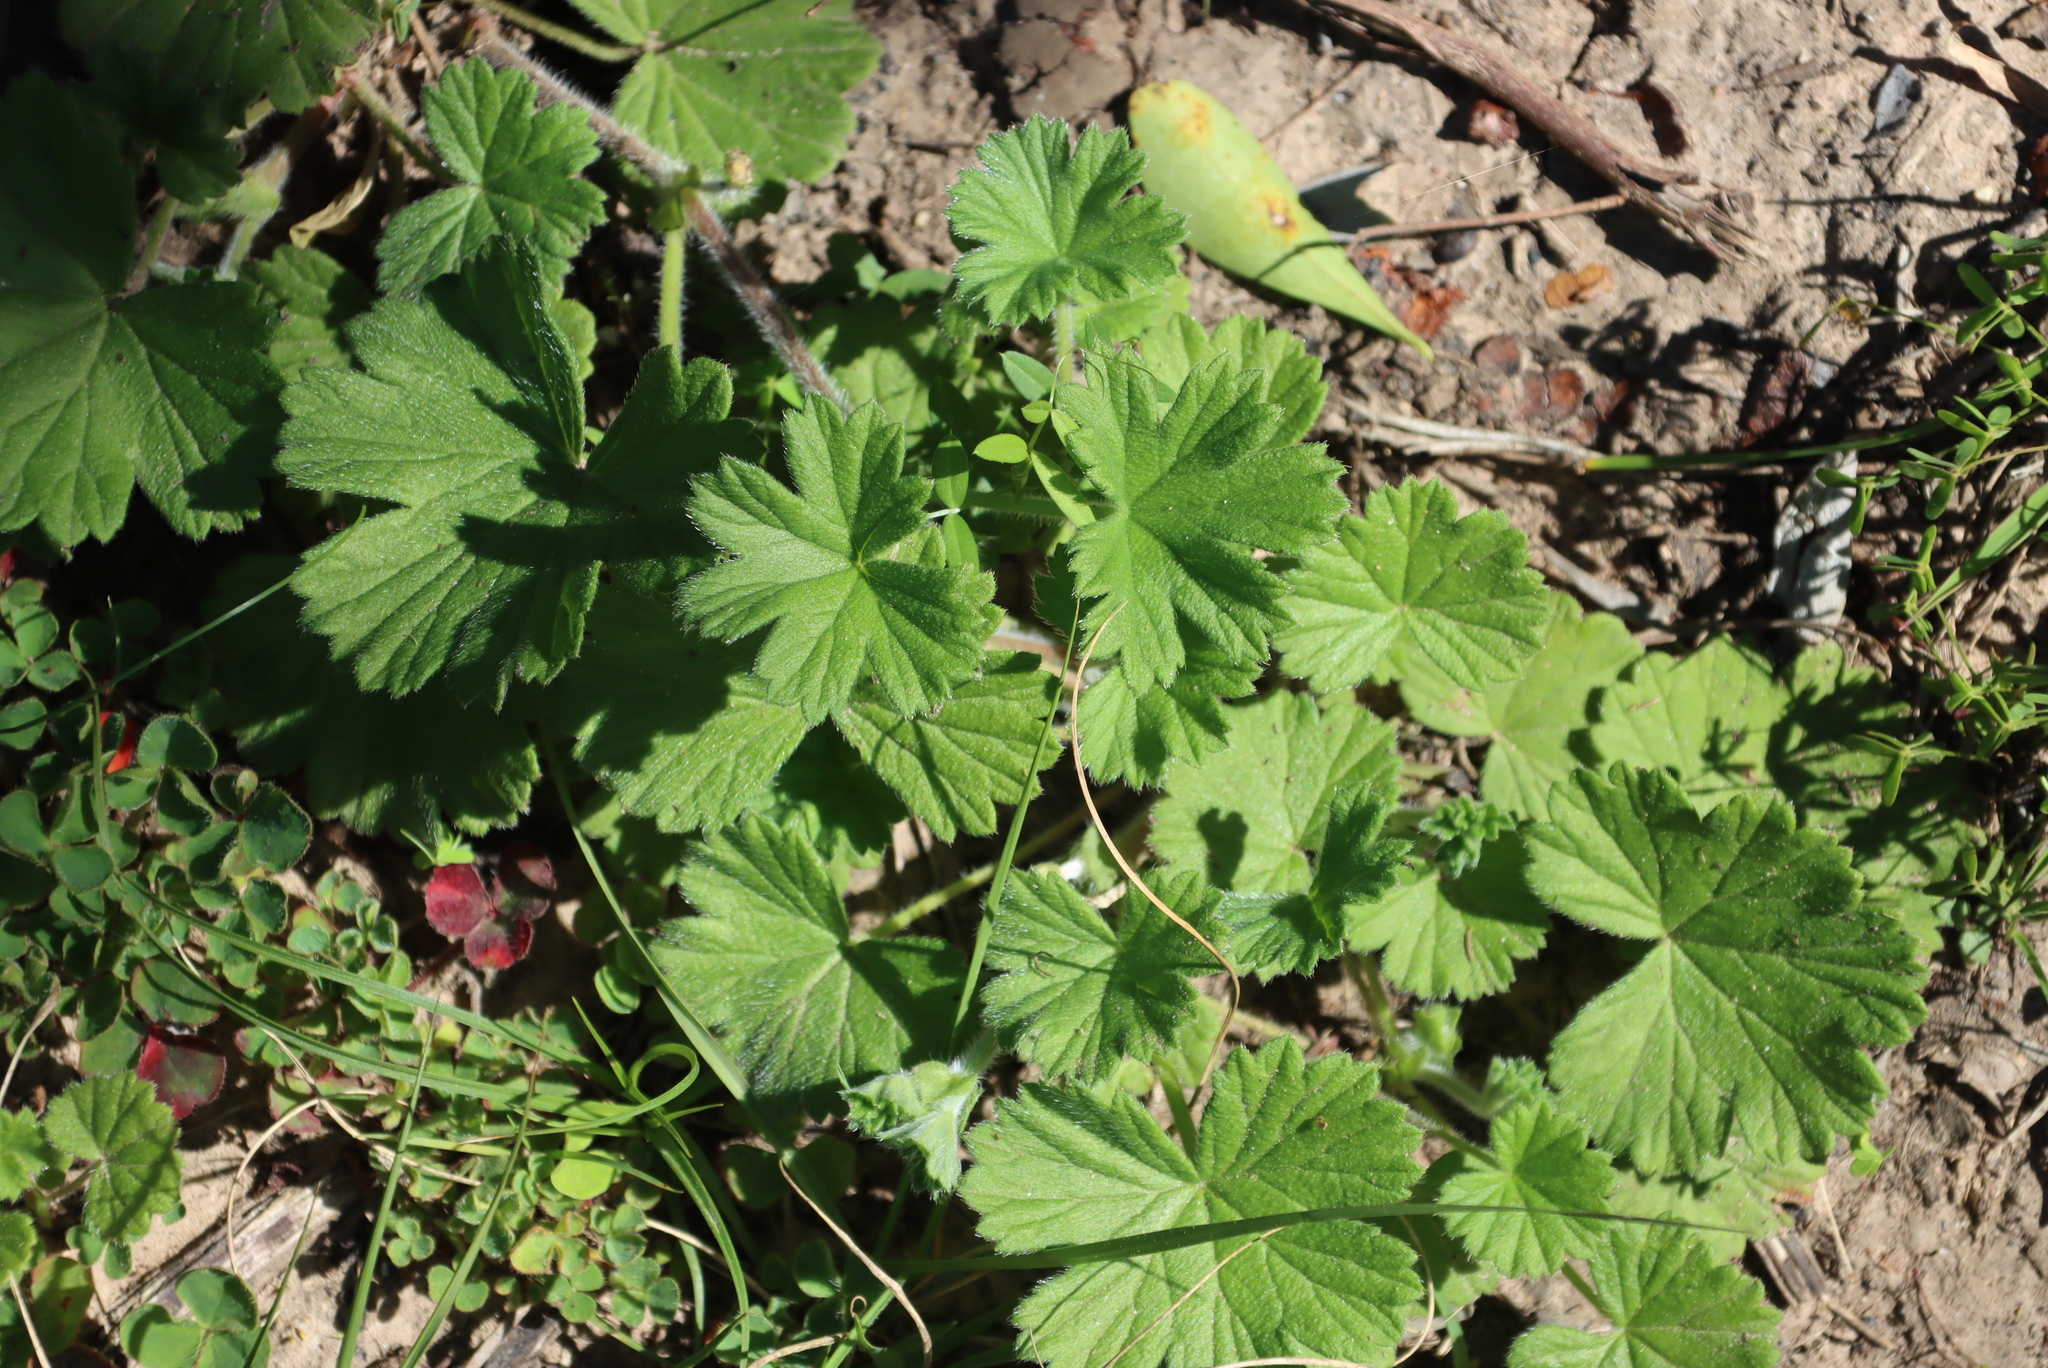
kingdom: Plantae
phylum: Tracheophyta
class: Magnoliopsida
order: Geraniales
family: Geraniaceae
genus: Pelargonium
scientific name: Pelargonium alchemilloides
